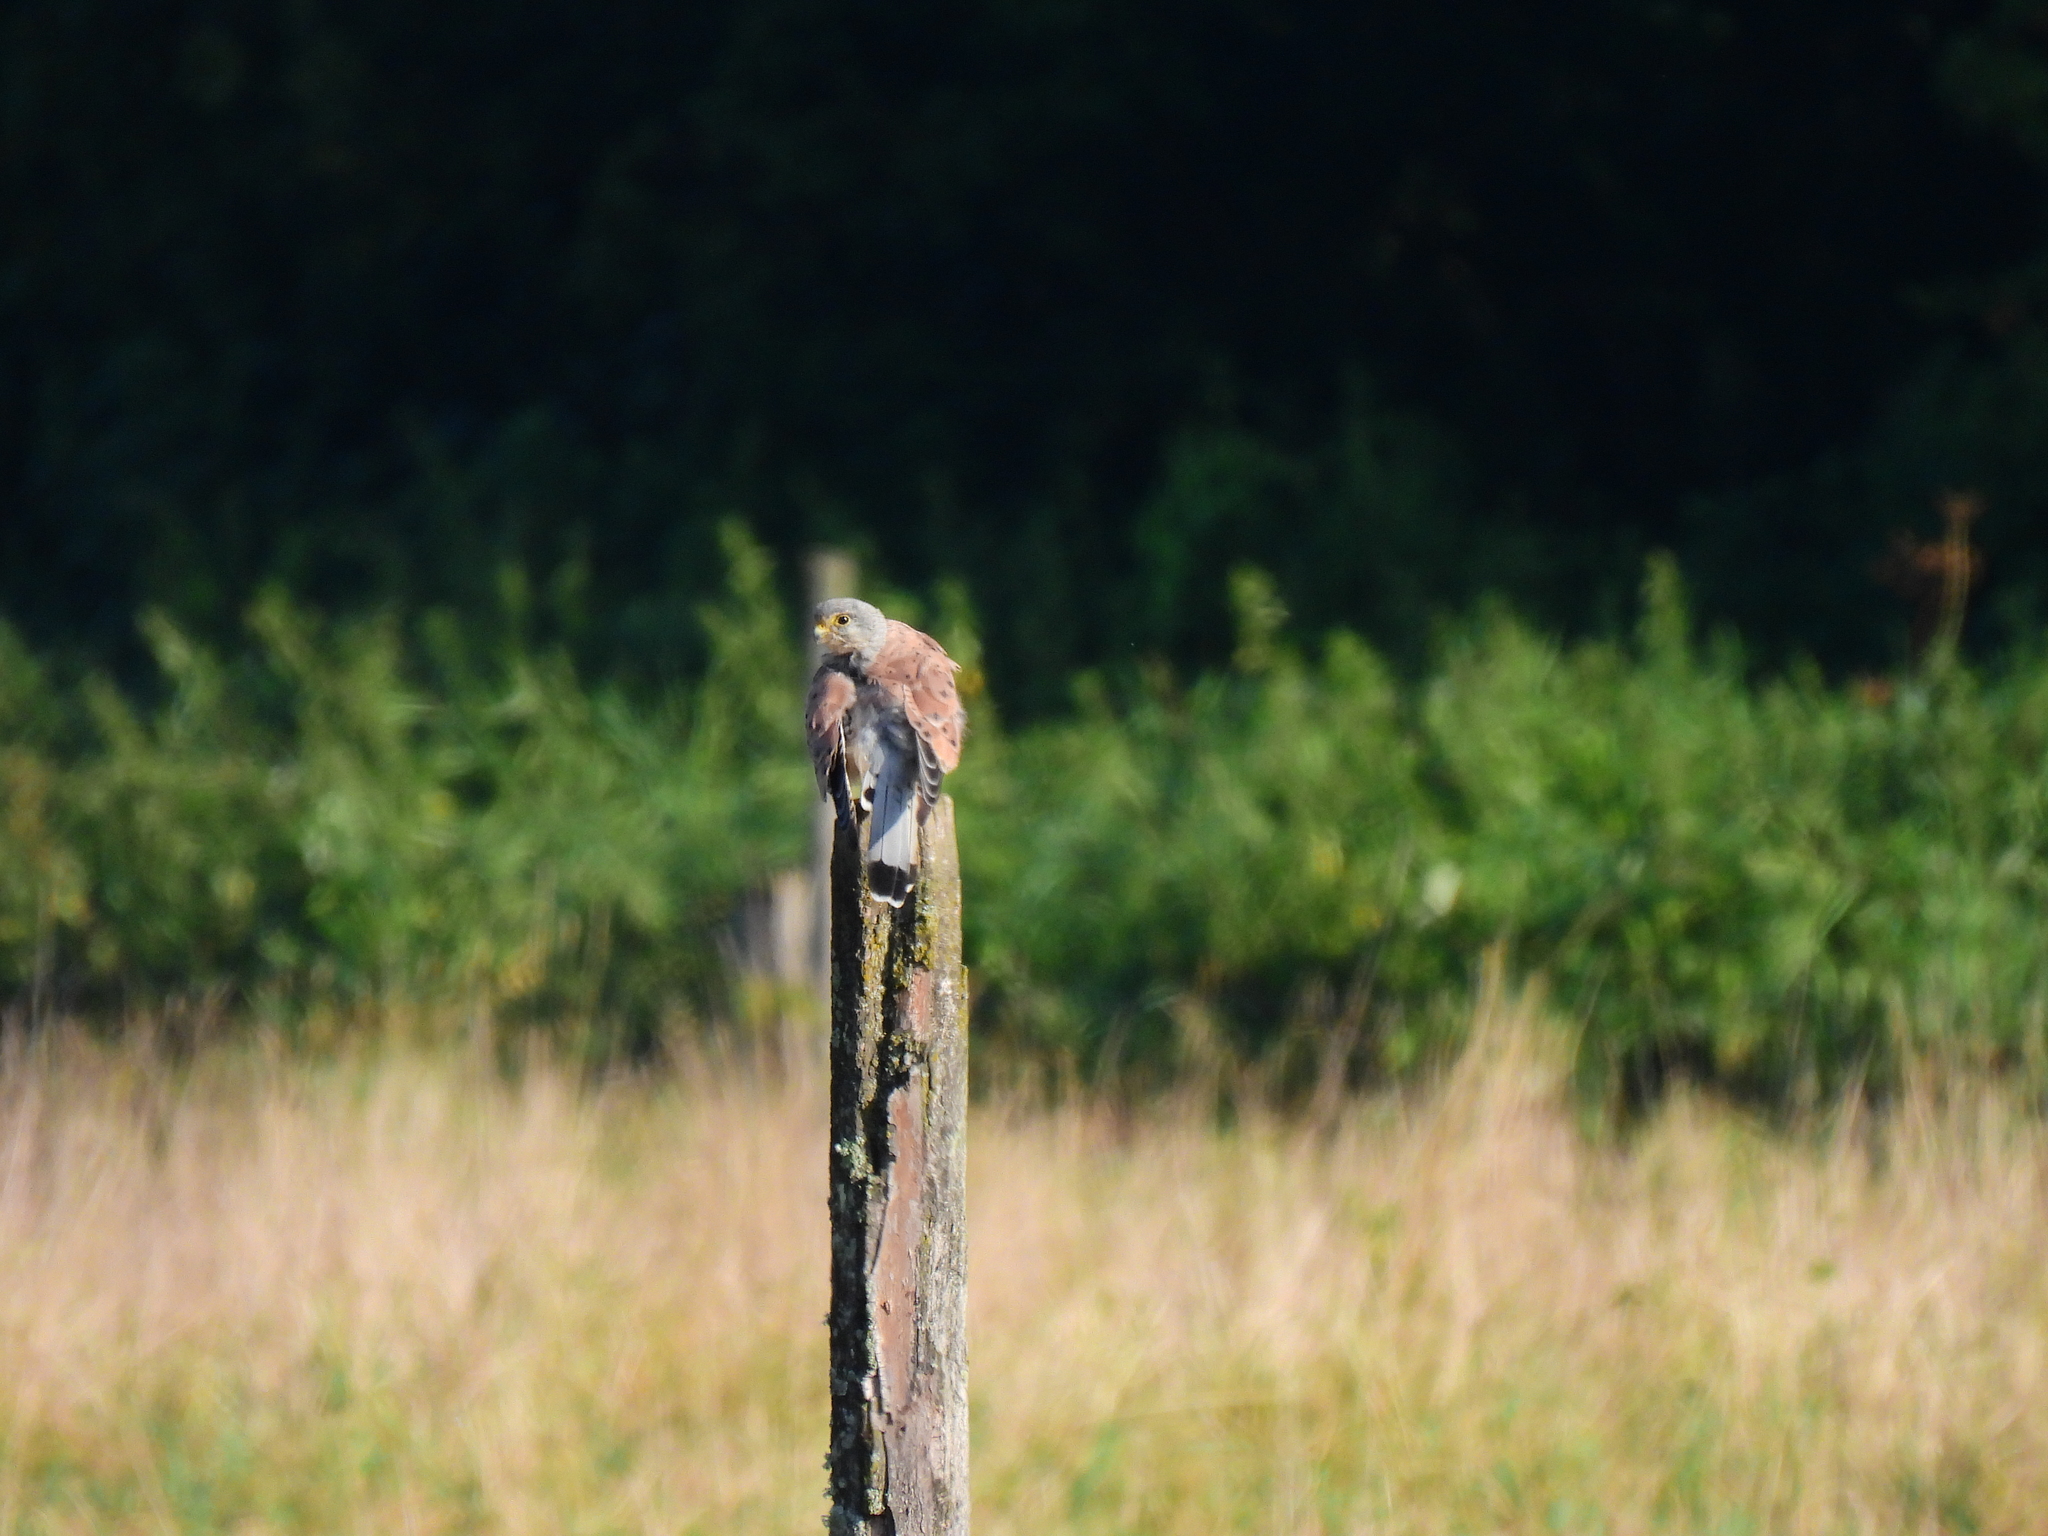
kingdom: Animalia
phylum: Chordata
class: Aves
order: Falconiformes
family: Falconidae
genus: Falco
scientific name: Falco tinnunculus
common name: Common kestrel
